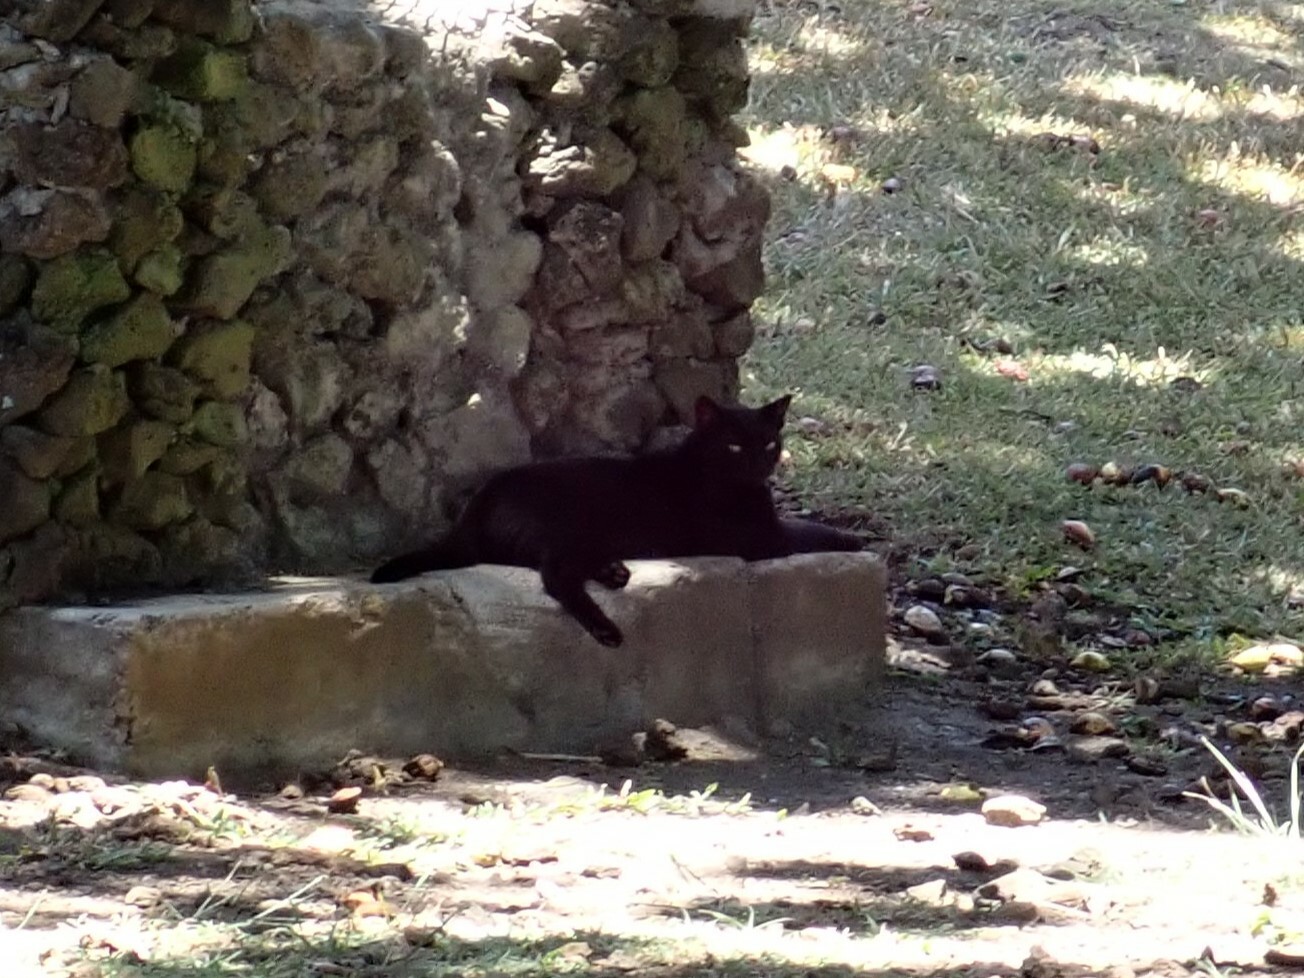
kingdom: Animalia
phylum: Chordata
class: Mammalia
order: Carnivora
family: Felidae
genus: Felis
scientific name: Felis catus
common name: Domestic cat
